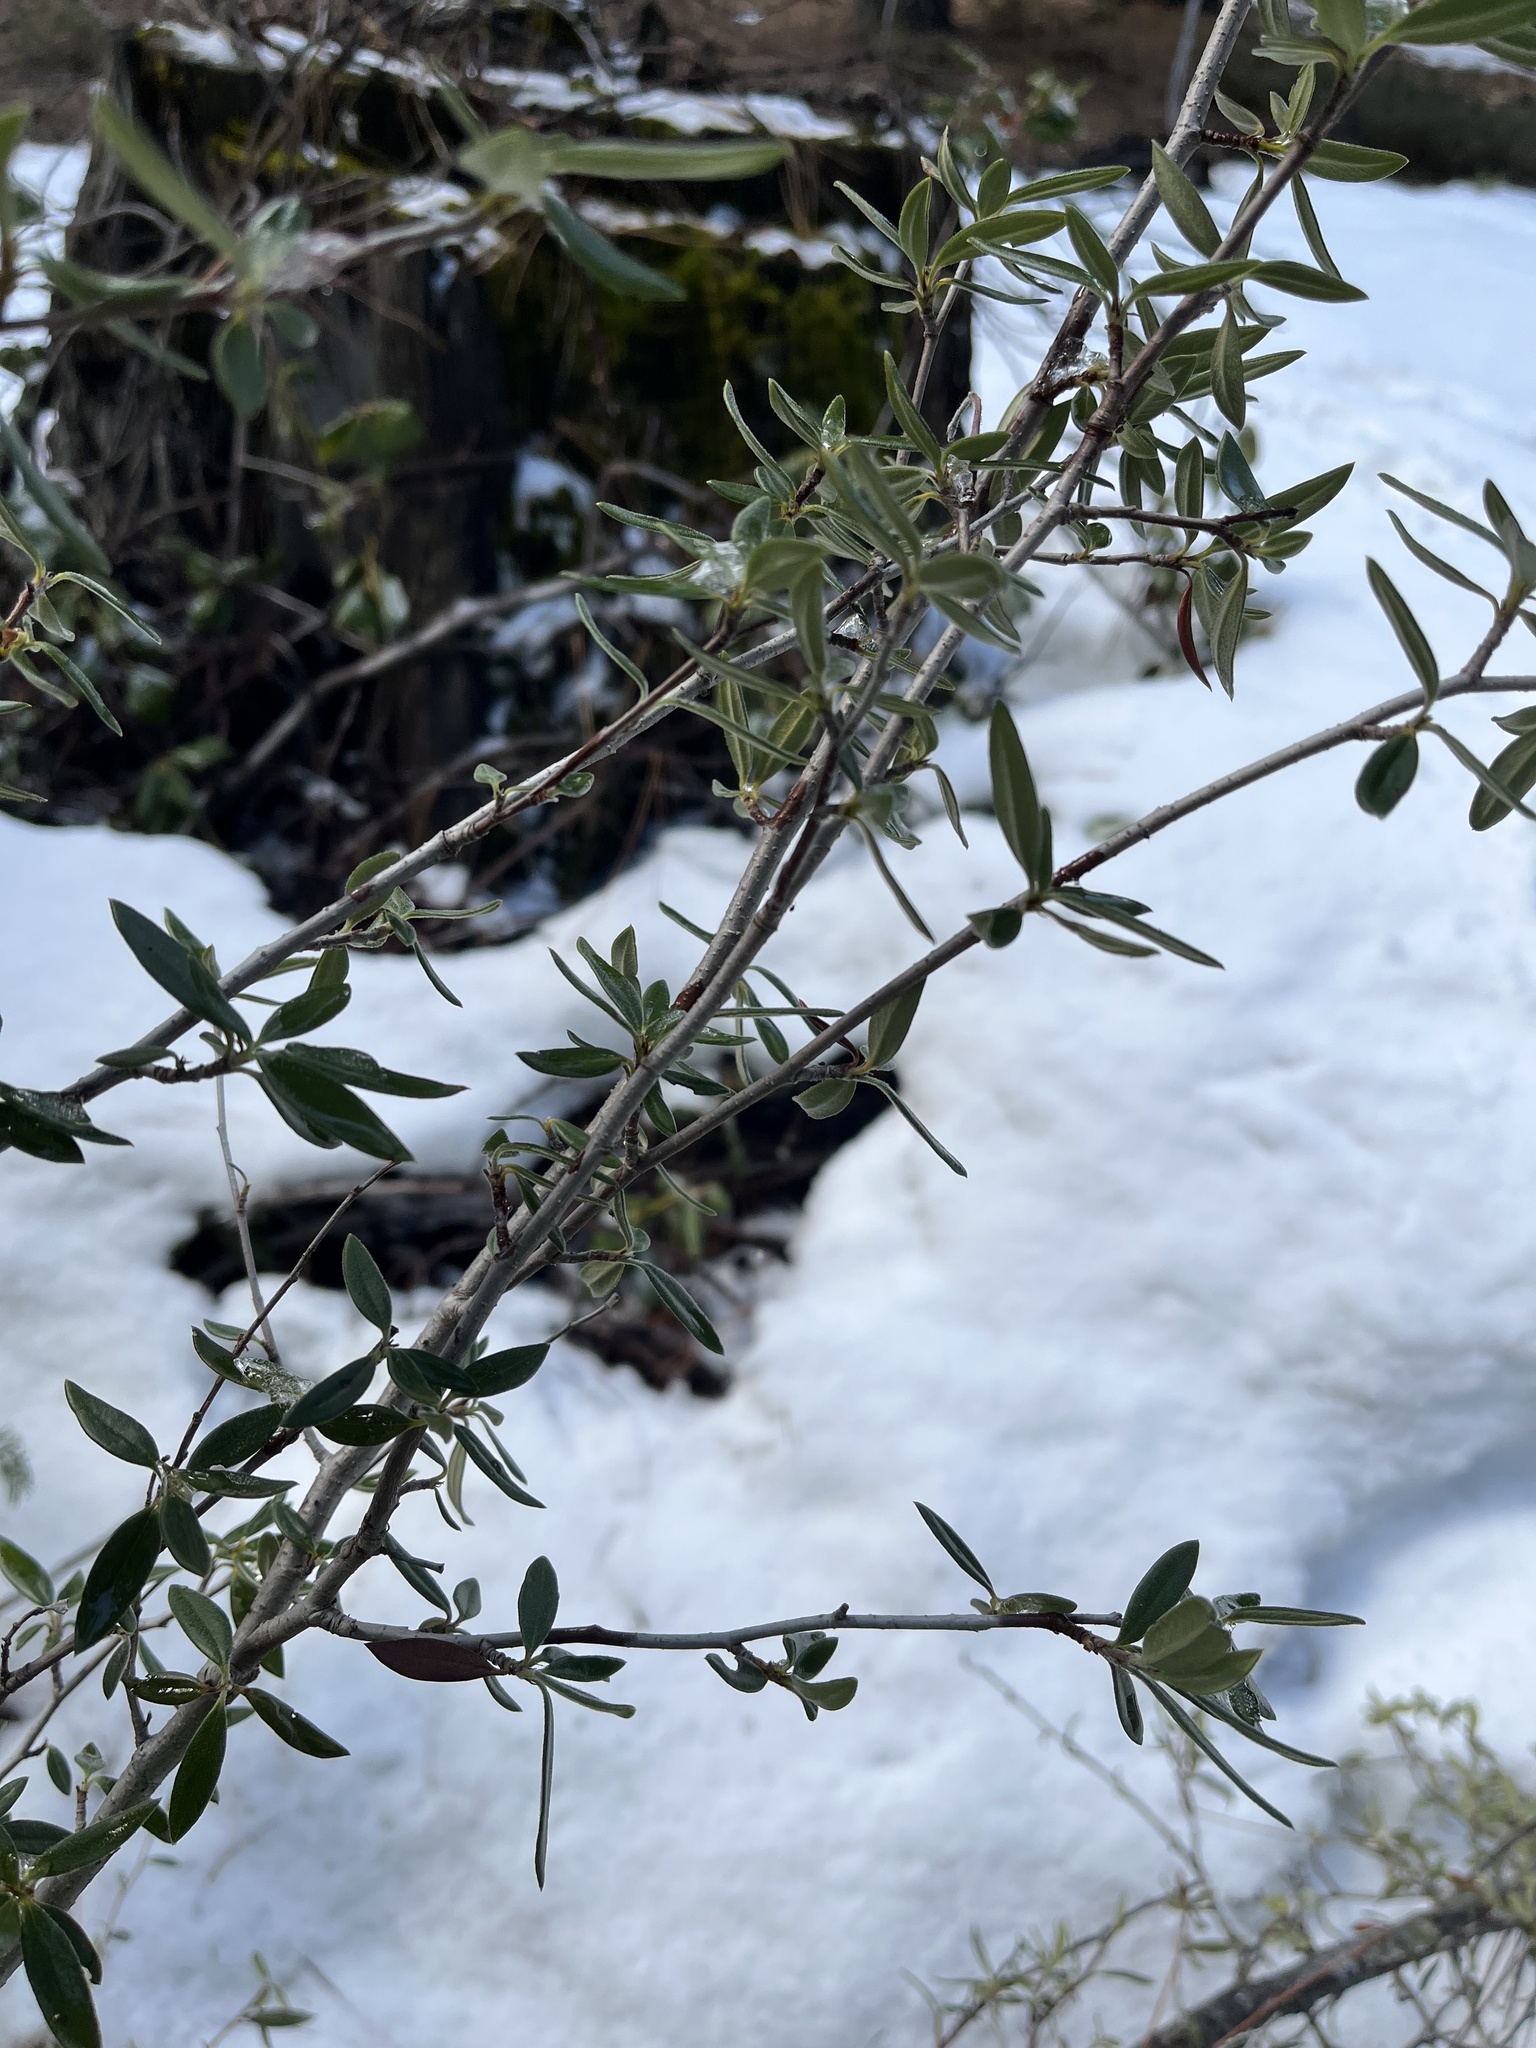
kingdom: Plantae
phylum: Tracheophyta
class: Magnoliopsida
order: Rosales
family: Rosaceae
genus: Cercocarpus
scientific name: Cercocarpus ledifolius
